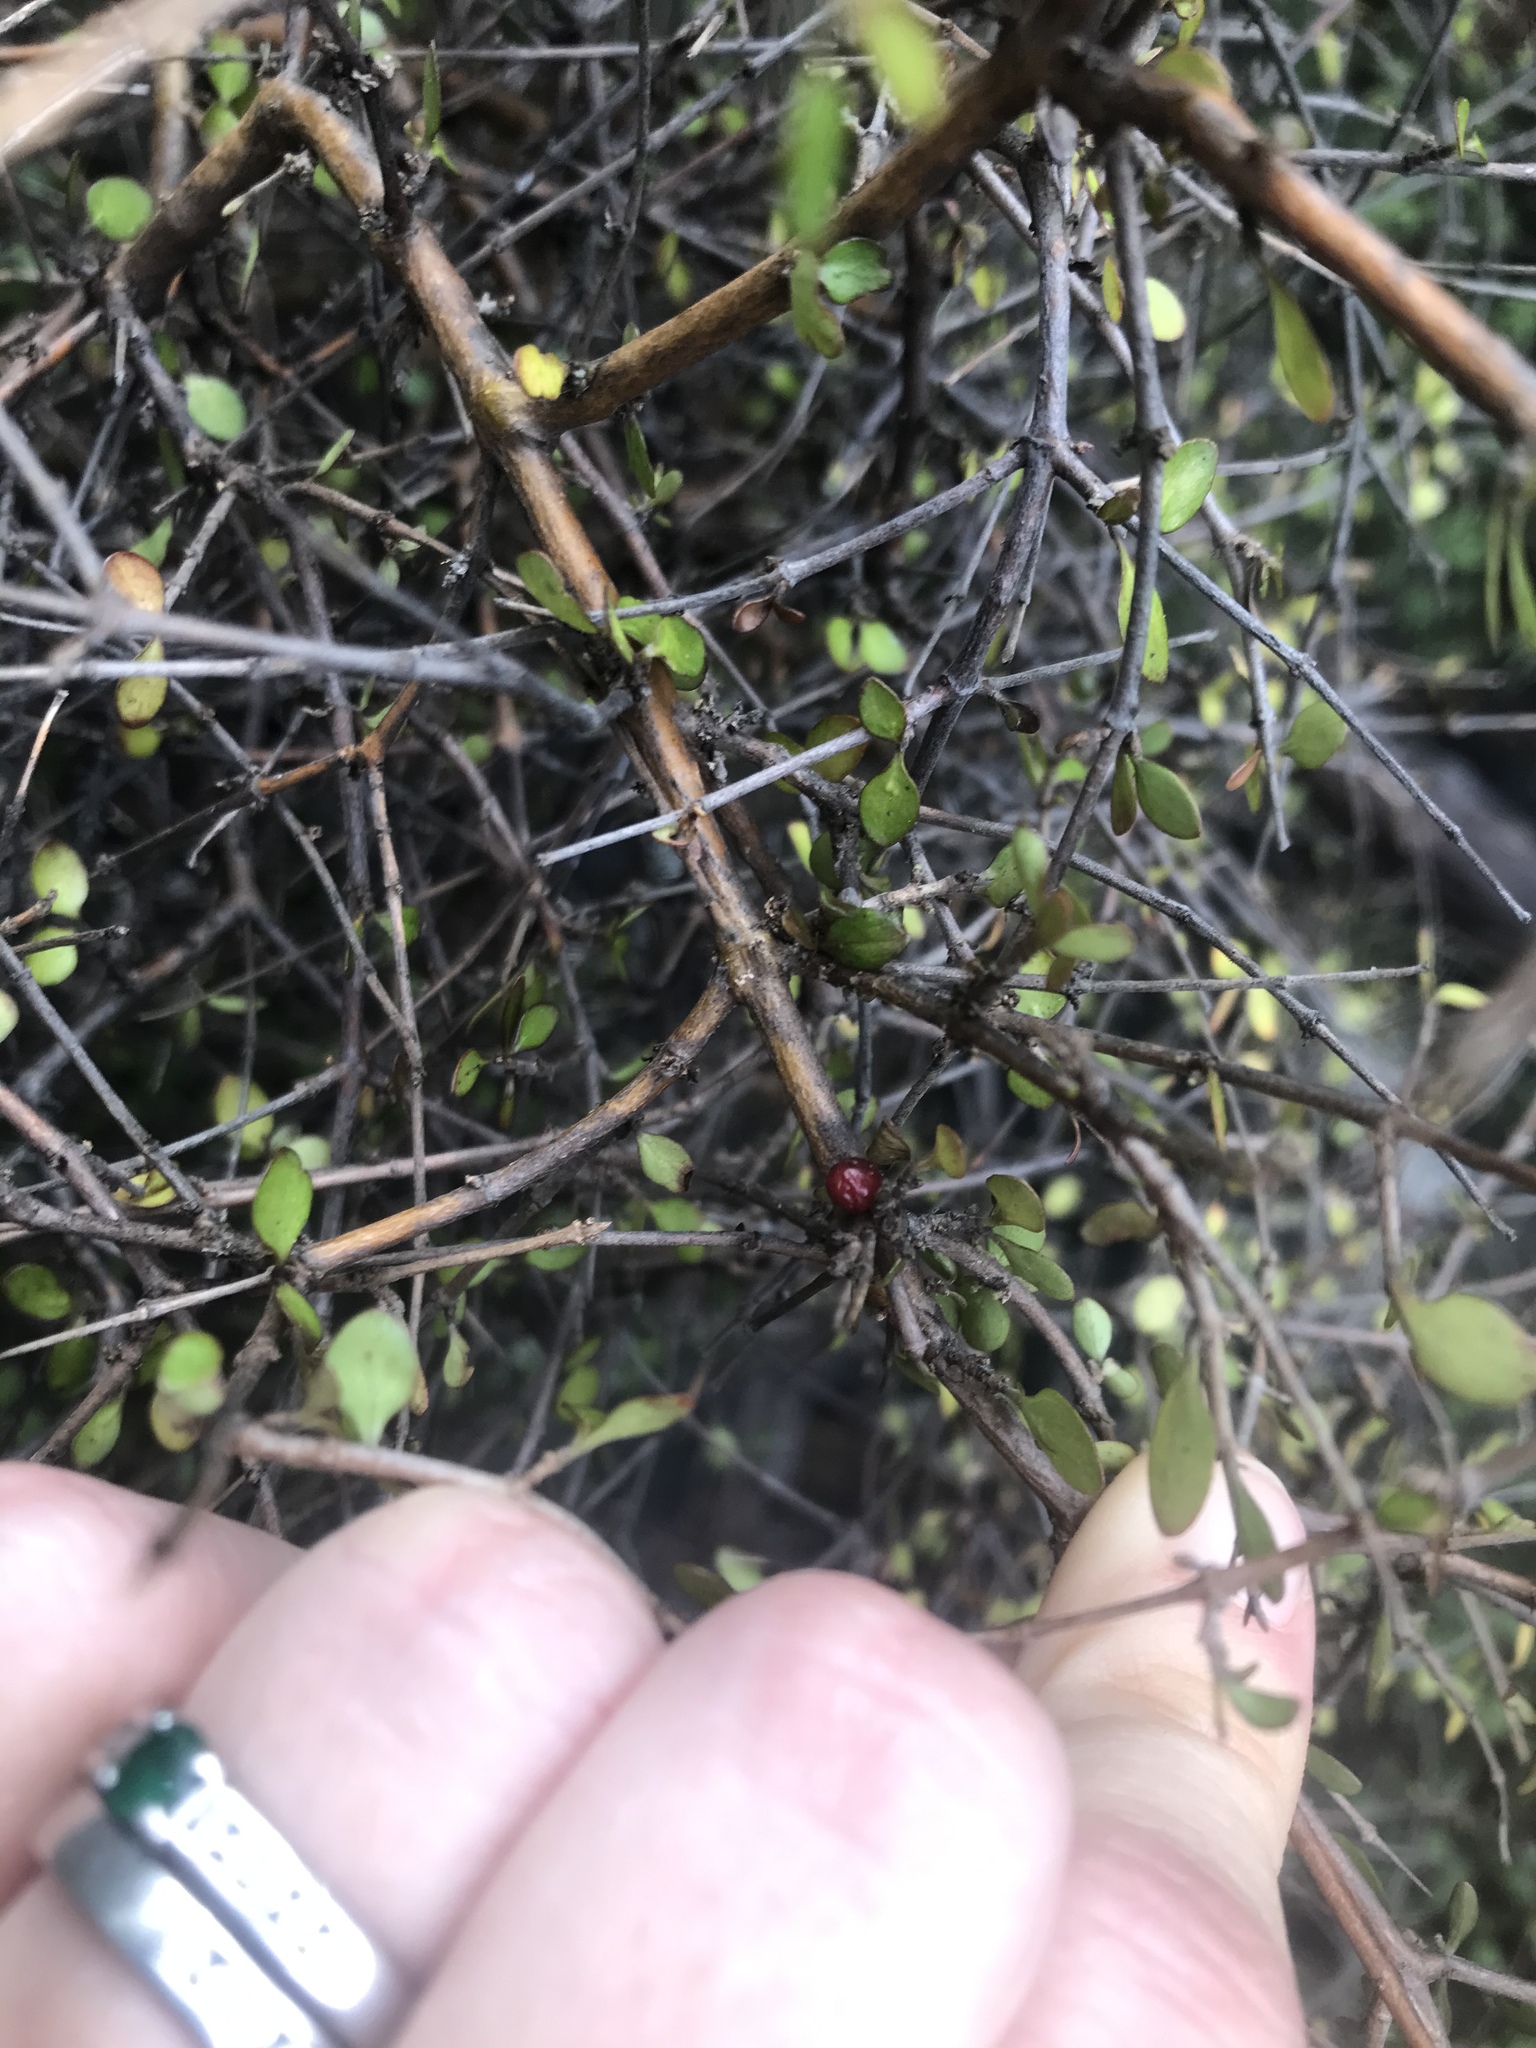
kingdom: Plantae
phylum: Tracheophyta
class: Magnoliopsida
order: Gentianales
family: Rubiaceae
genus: Coprosma
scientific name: Coprosma rhamnoides
